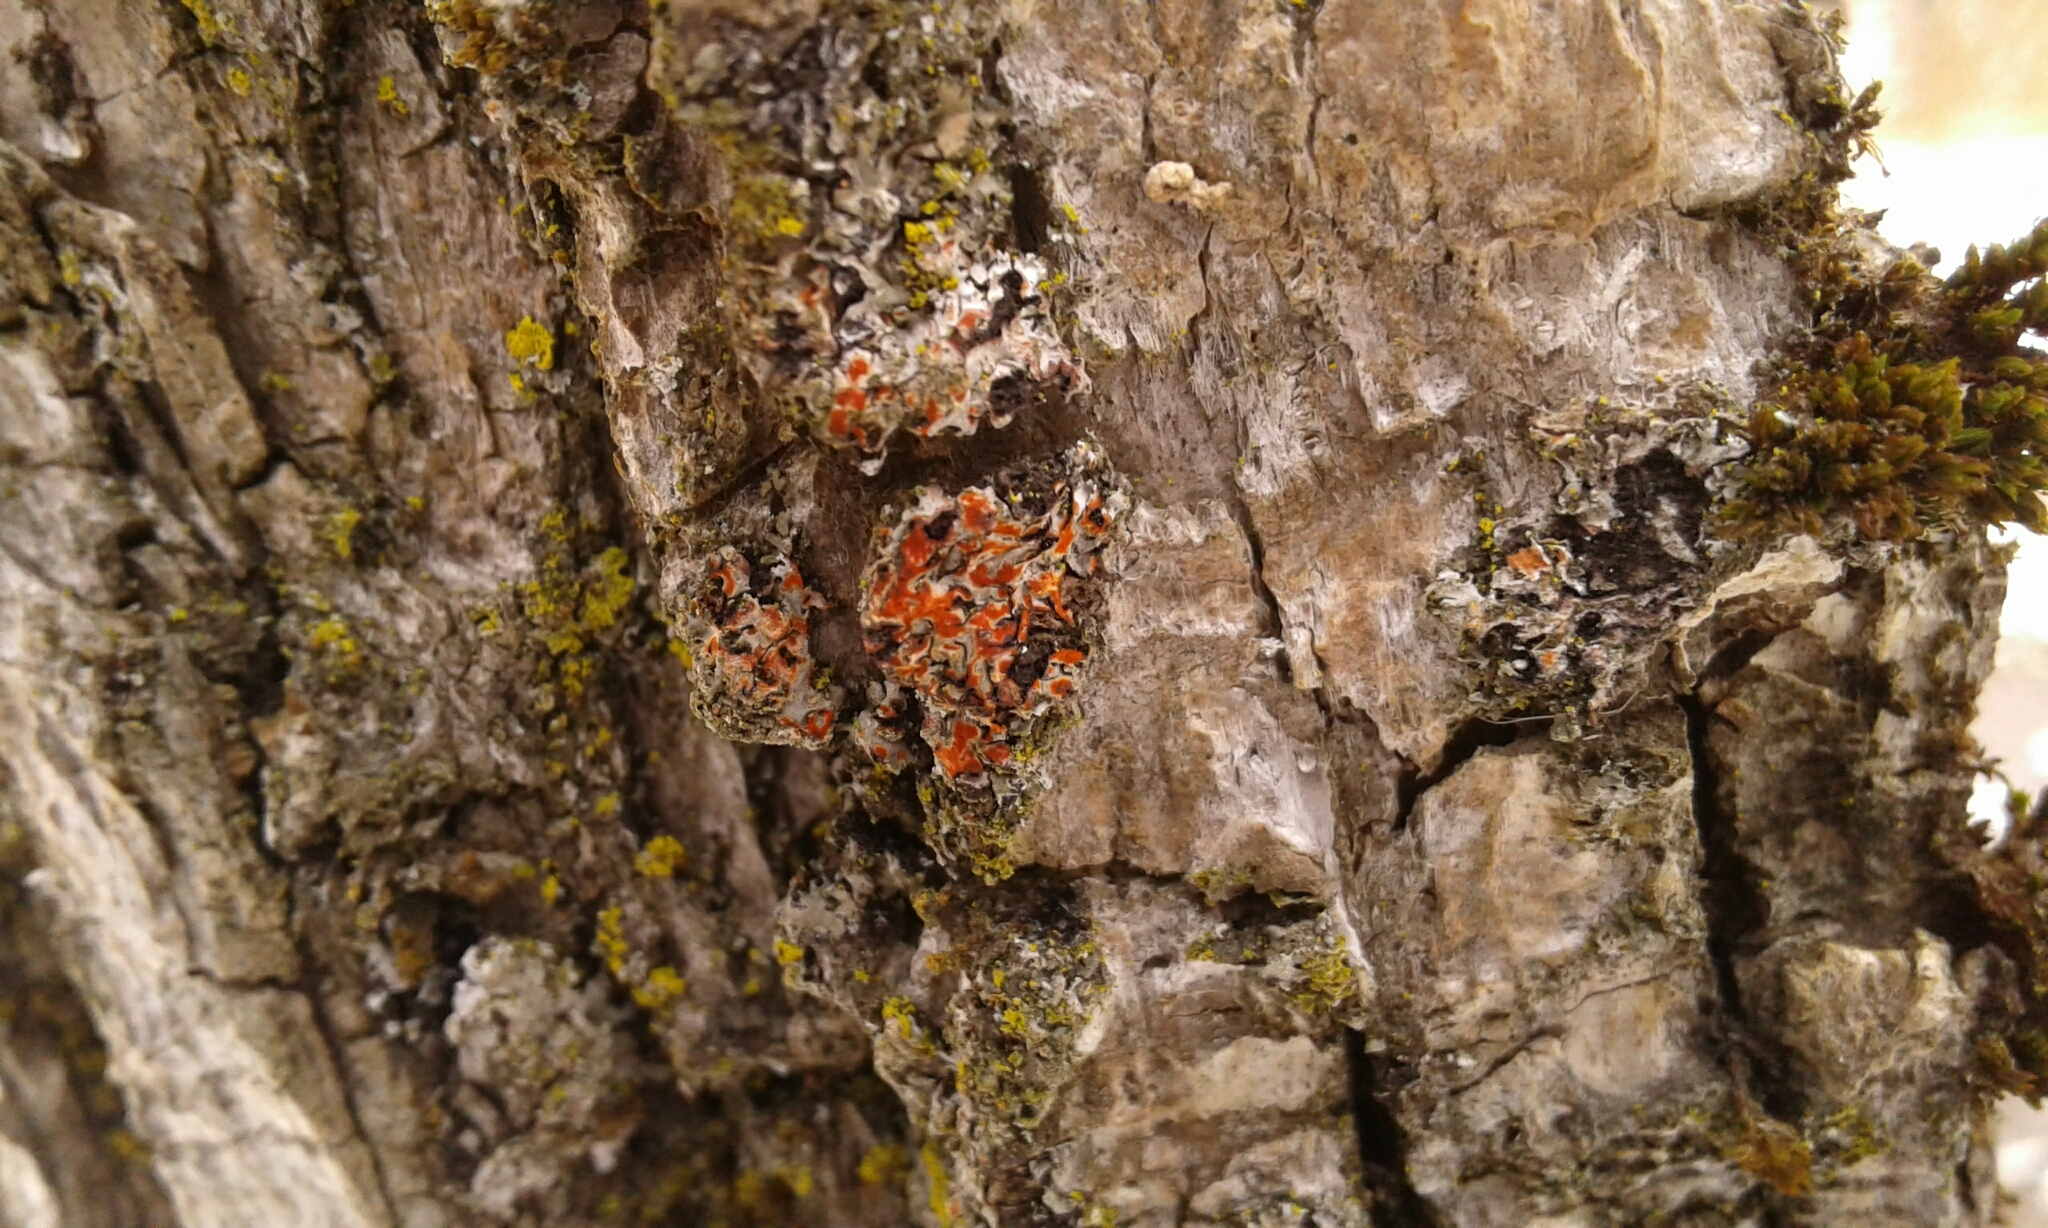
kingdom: Fungi
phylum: Ascomycota
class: Lecanoromycetes
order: Caliciales
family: Physciaceae
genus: Phaeophyscia
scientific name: Phaeophyscia rubropulchra
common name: Orange-cored shadow lichen
